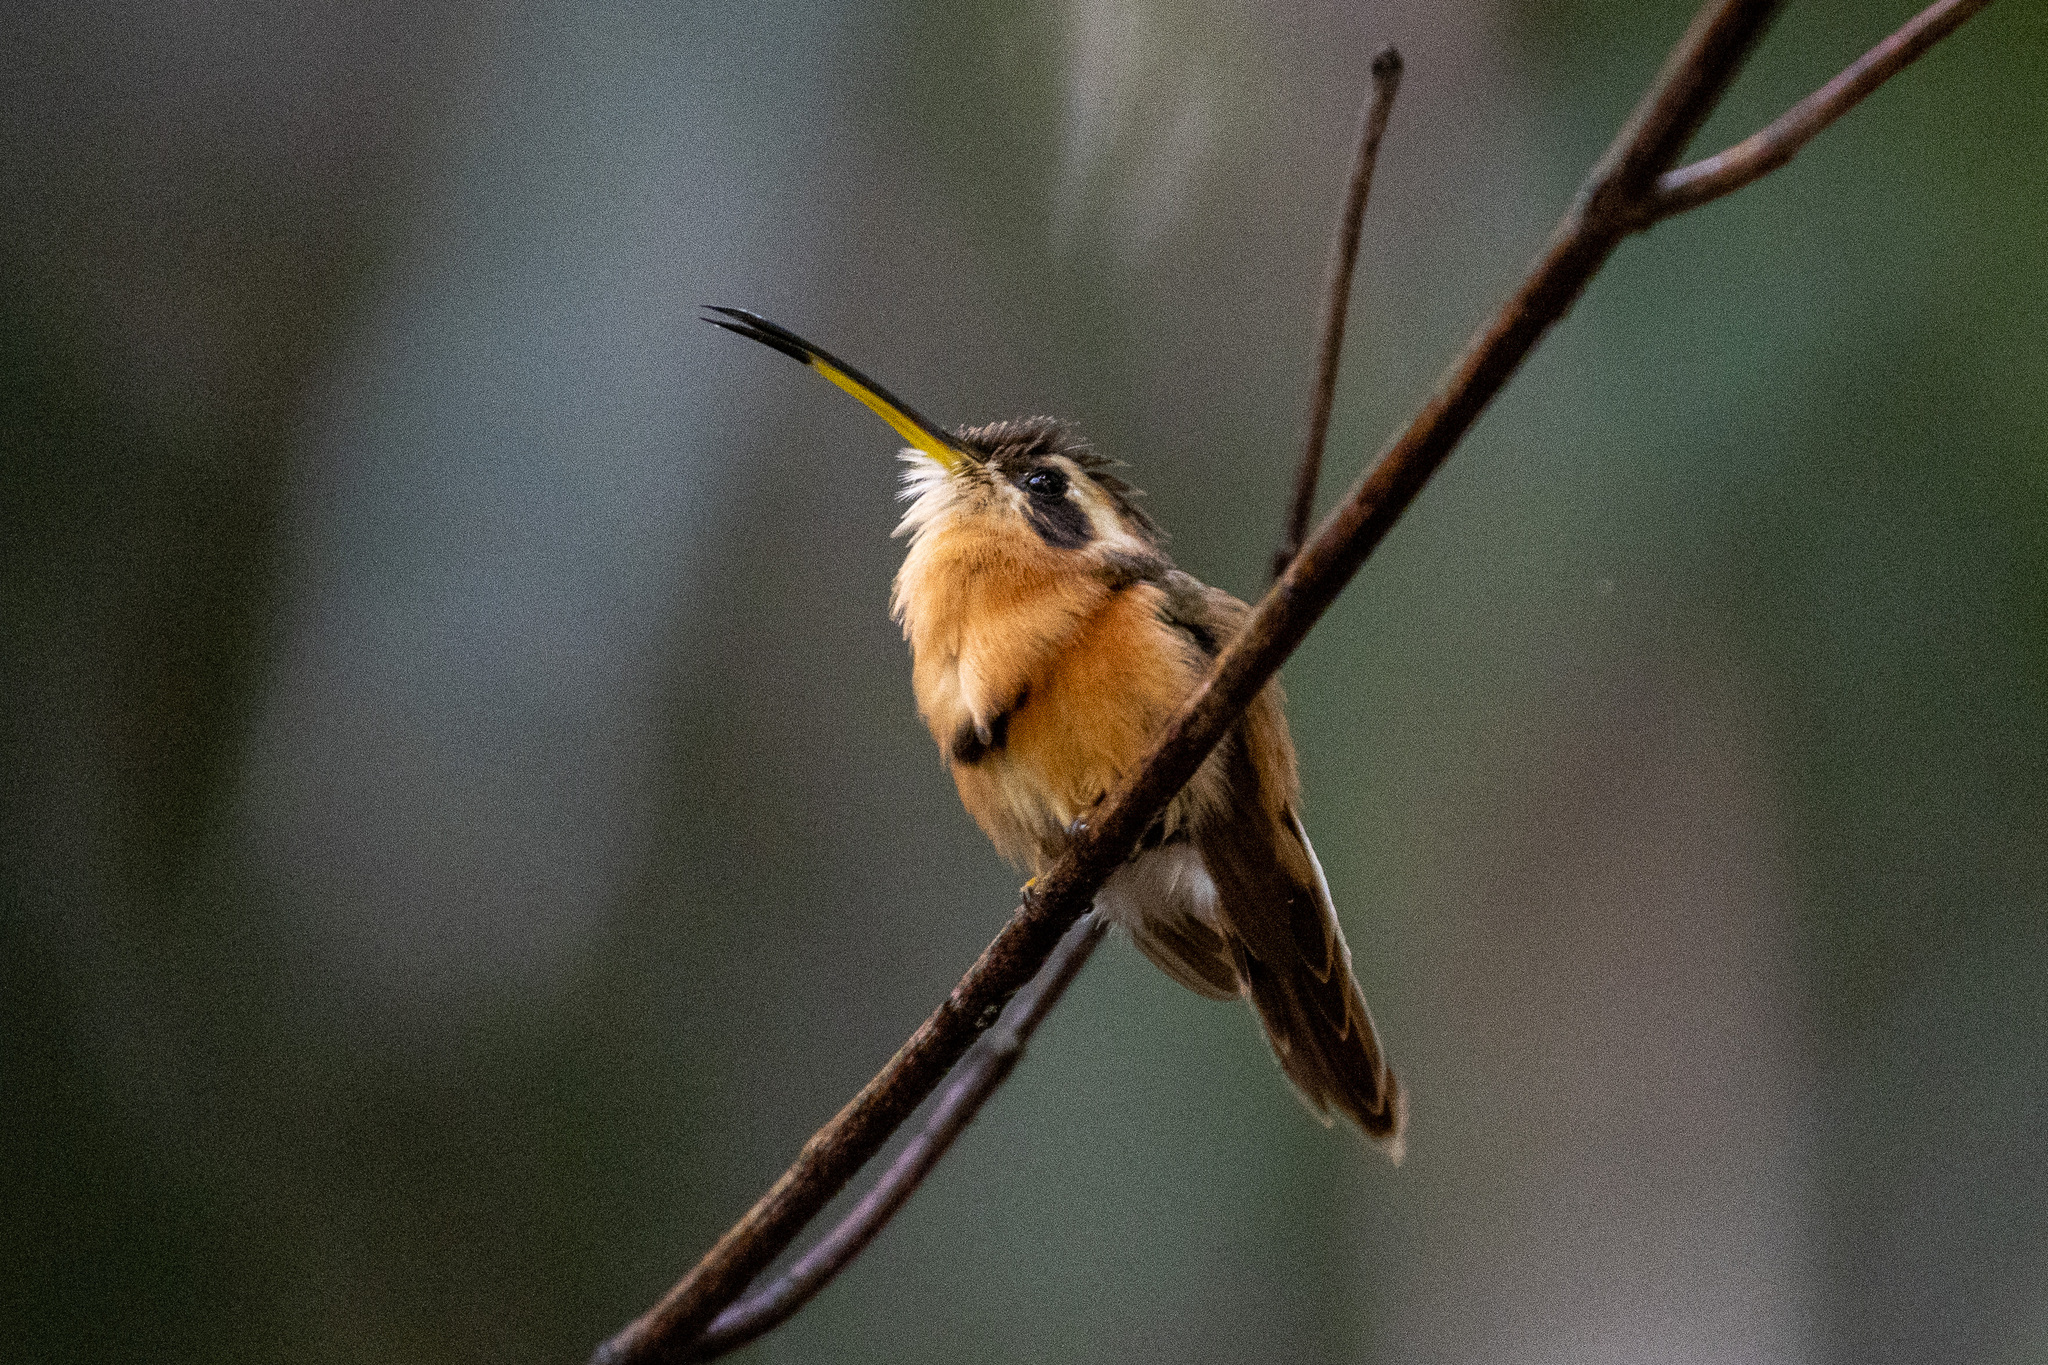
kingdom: Animalia
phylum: Chordata
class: Aves
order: Apodiformes
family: Trochilidae
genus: Phaethornis
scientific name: Phaethornis ruber
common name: Reddish hermit
